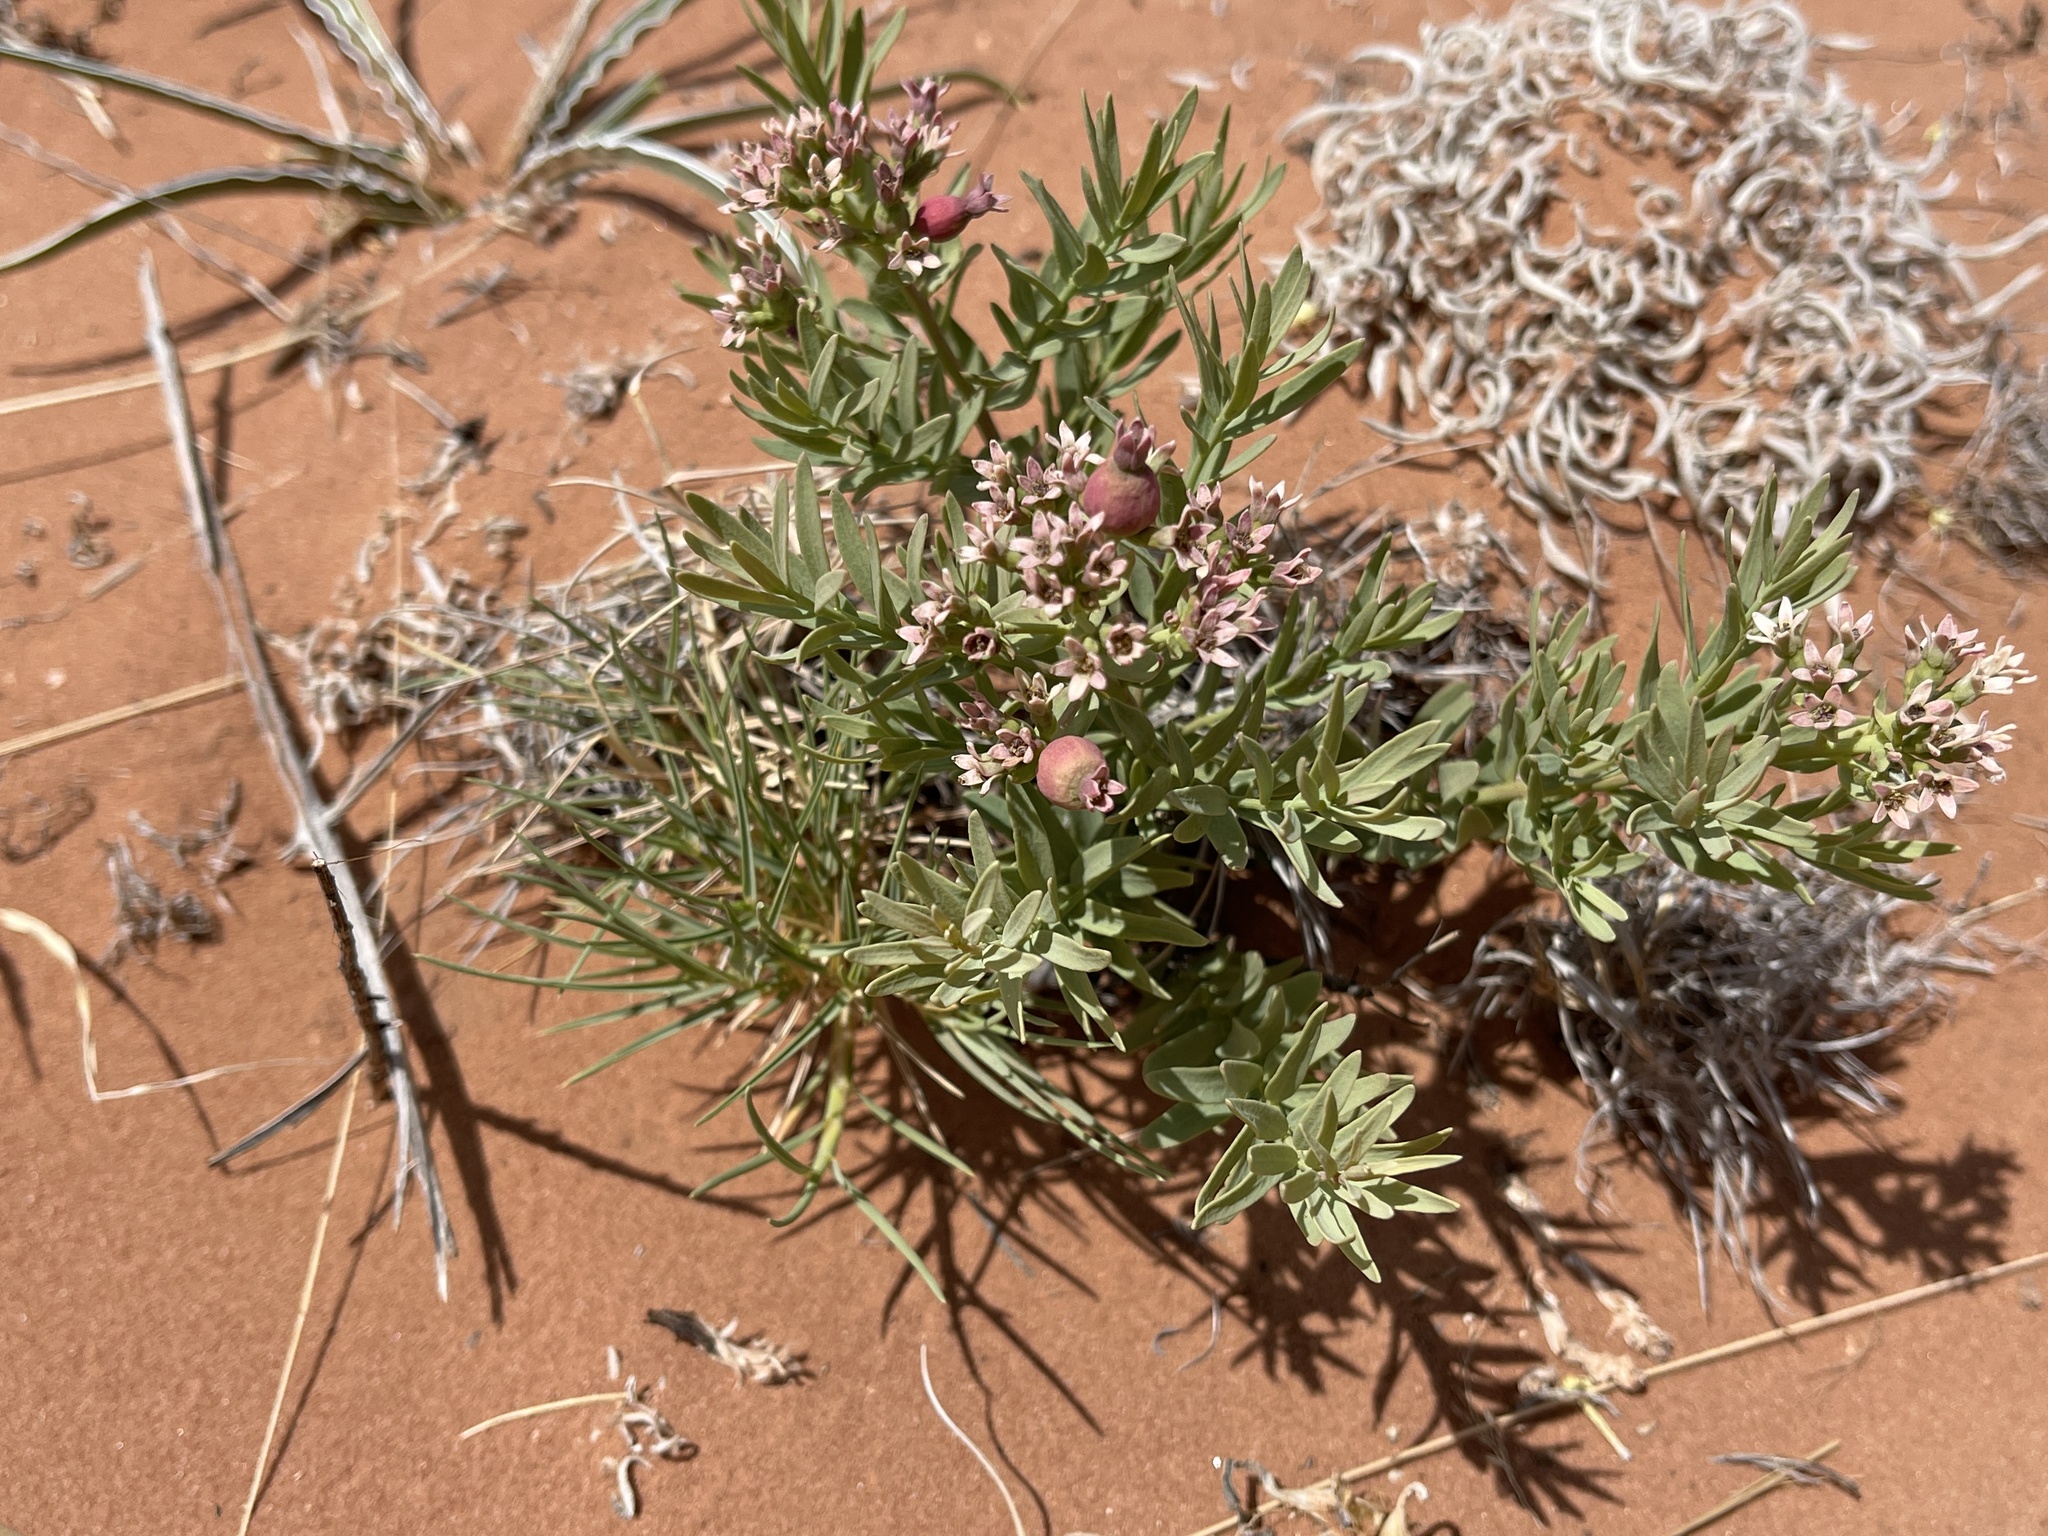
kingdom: Plantae
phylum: Tracheophyta
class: Magnoliopsida
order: Santalales
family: Comandraceae
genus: Comandra
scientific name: Comandra umbellata
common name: Bastard toadflax
